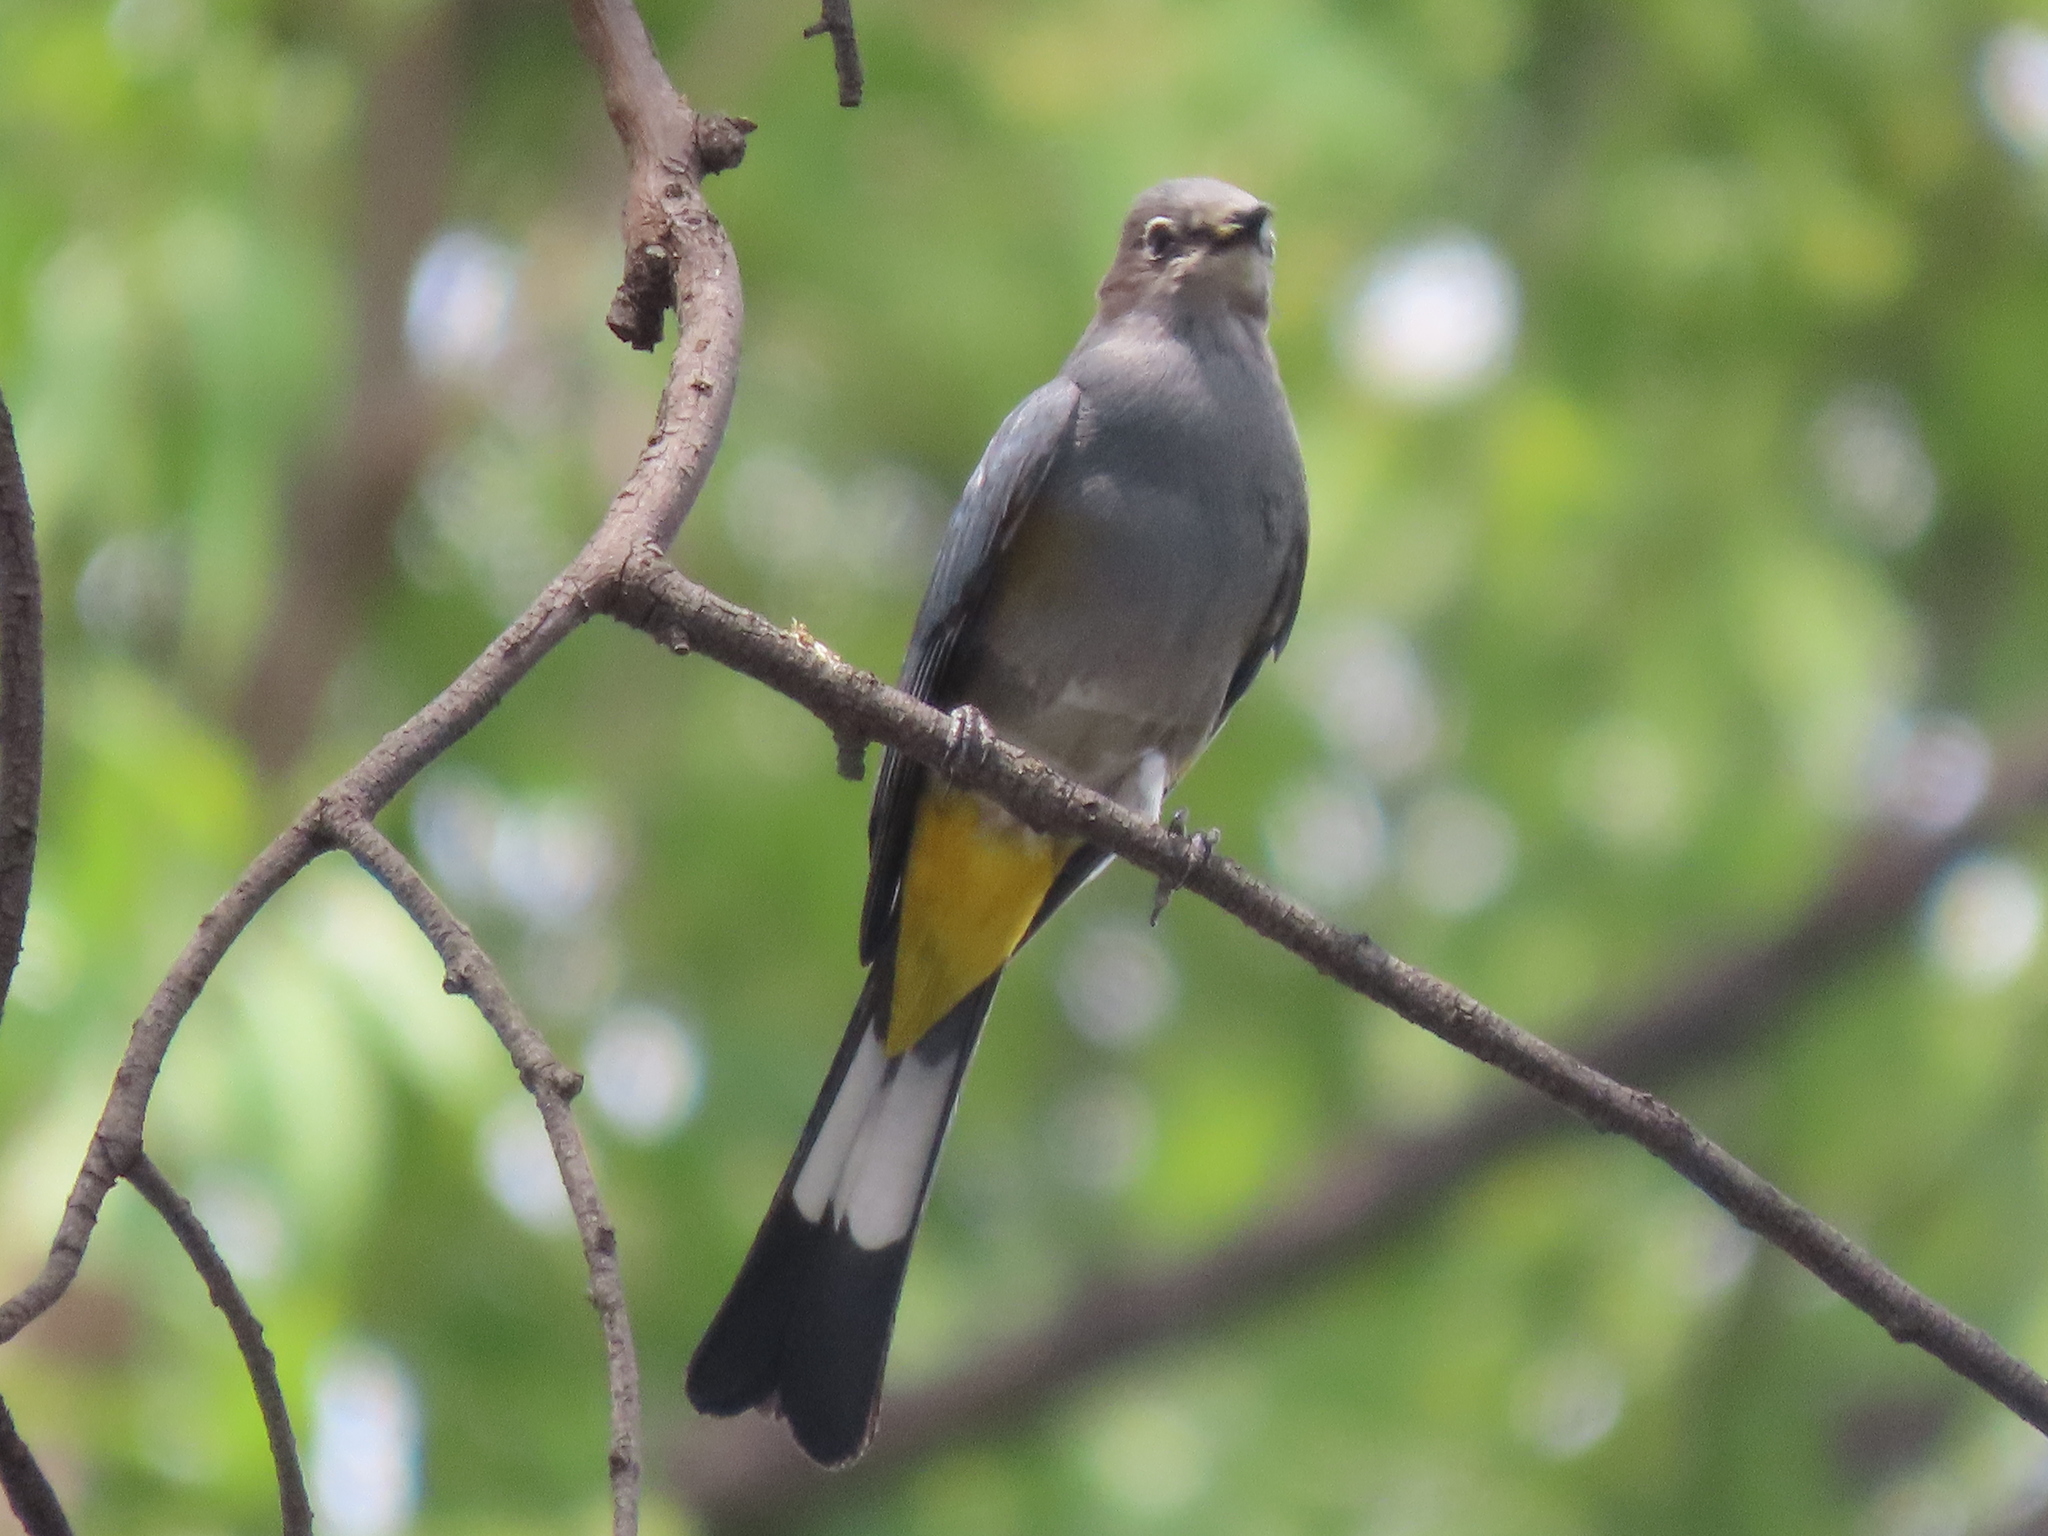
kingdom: Animalia
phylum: Chordata
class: Aves
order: Passeriformes
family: Ptilogonatidae
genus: Ptilogonys
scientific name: Ptilogonys cinereus
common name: Gray silky-flycatcher
